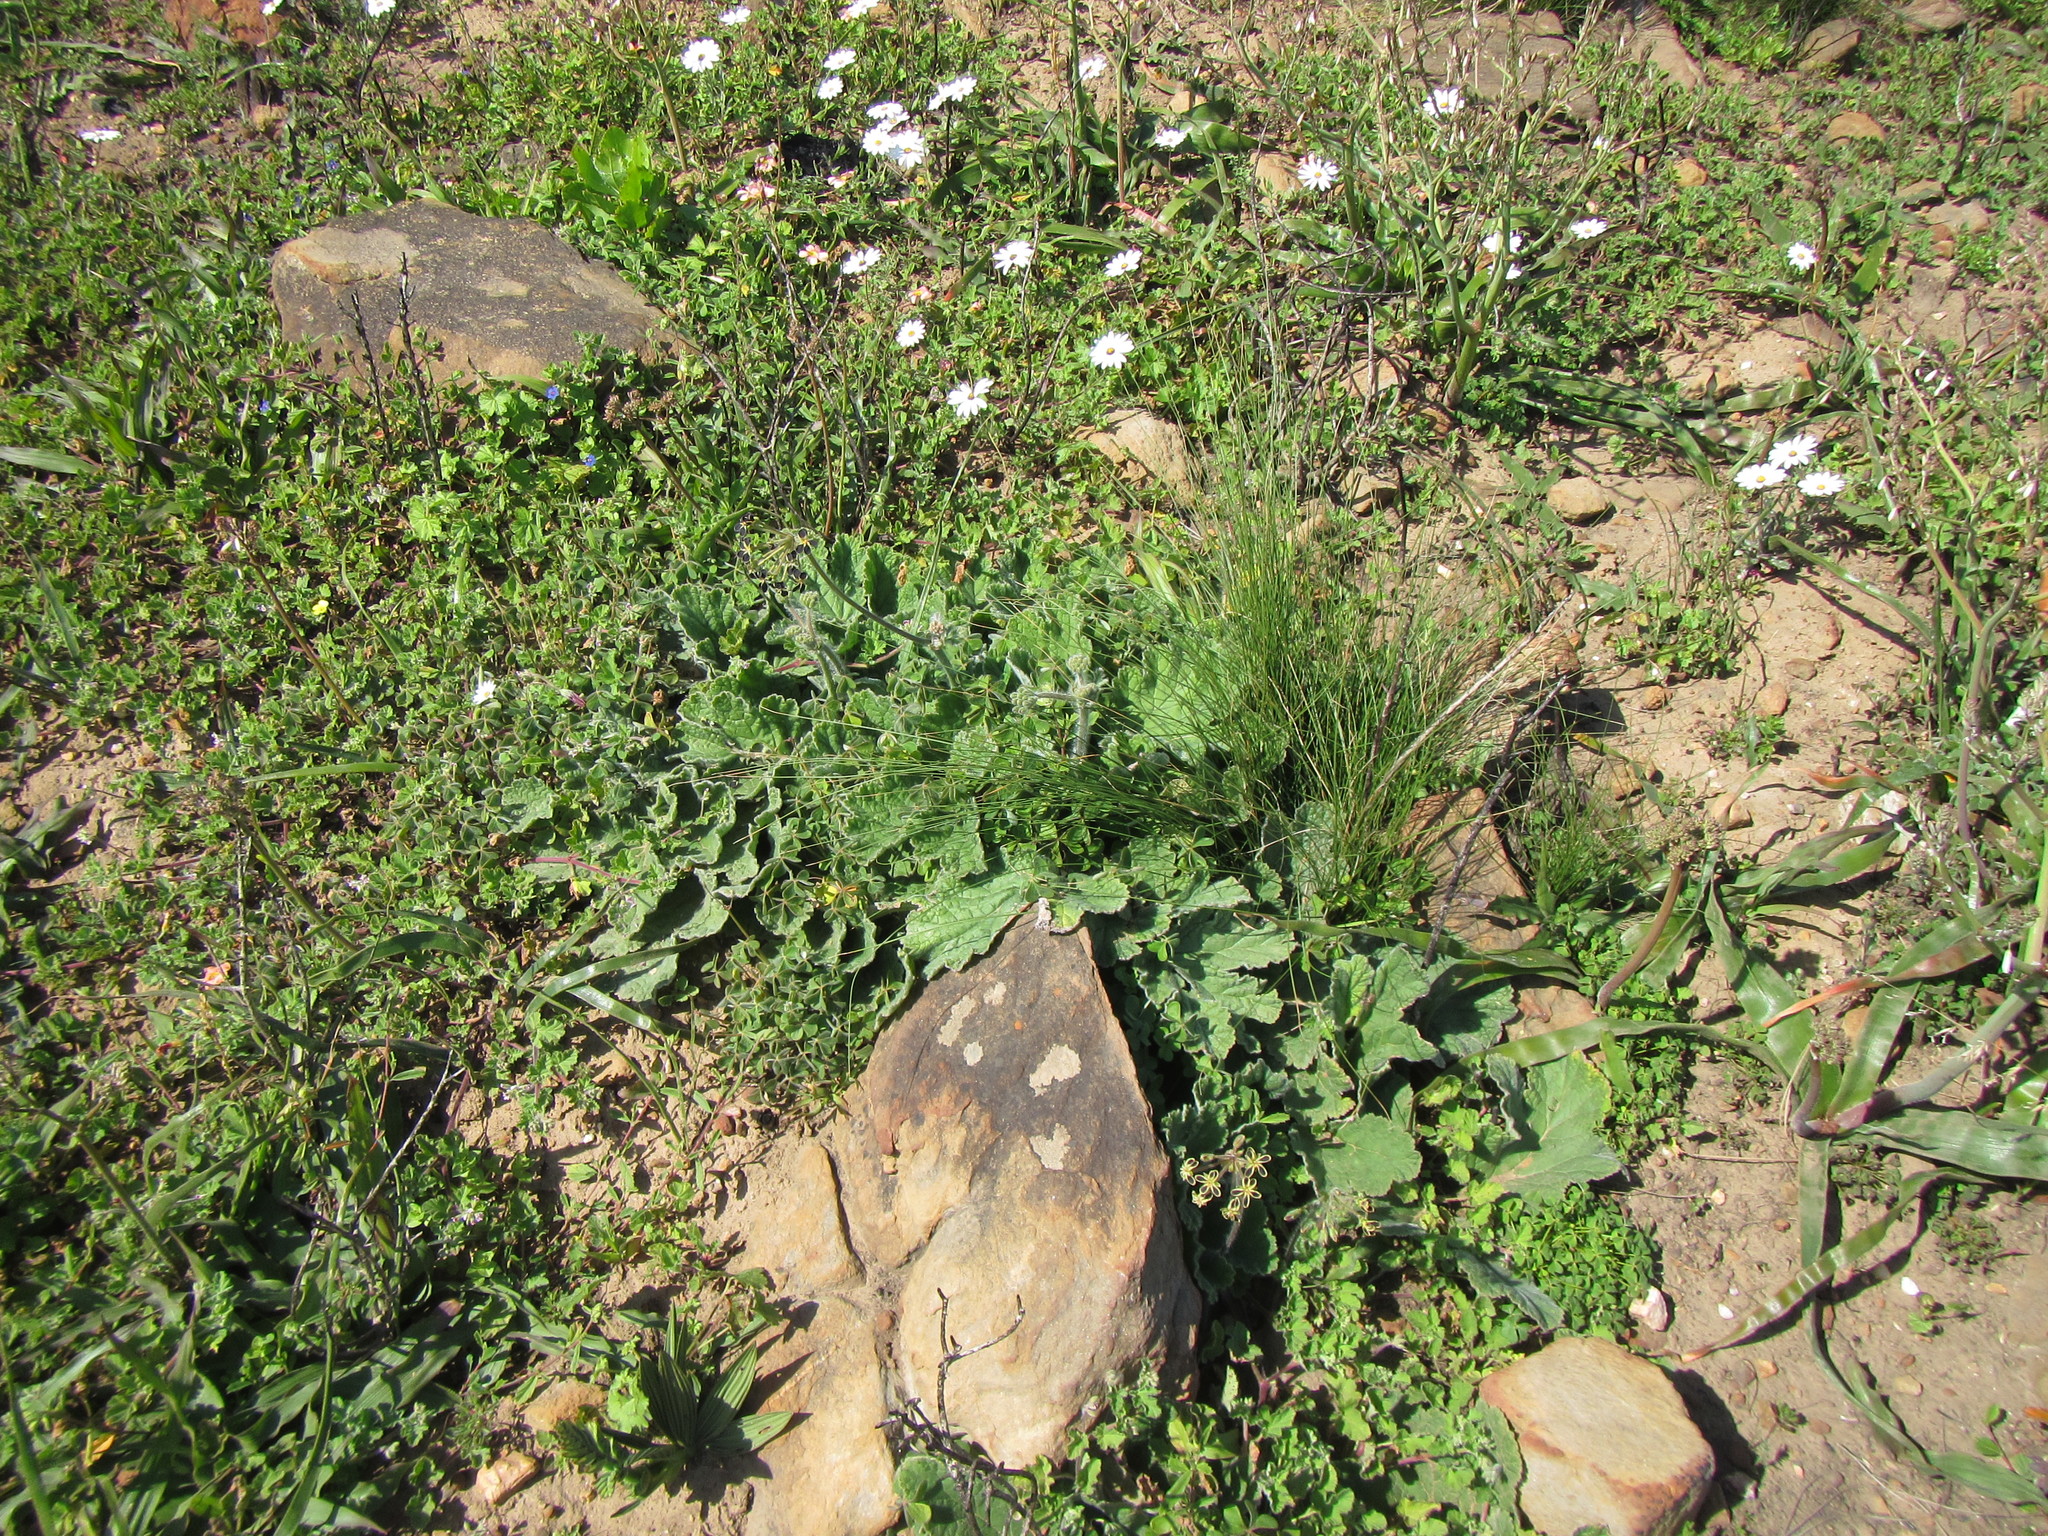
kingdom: Plantae
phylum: Tracheophyta
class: Magnoliopsida
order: Geraniales
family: Geraniaceae
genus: Pelargonium
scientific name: Pelargonium lobatum
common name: Vine-leaf pelargonium
